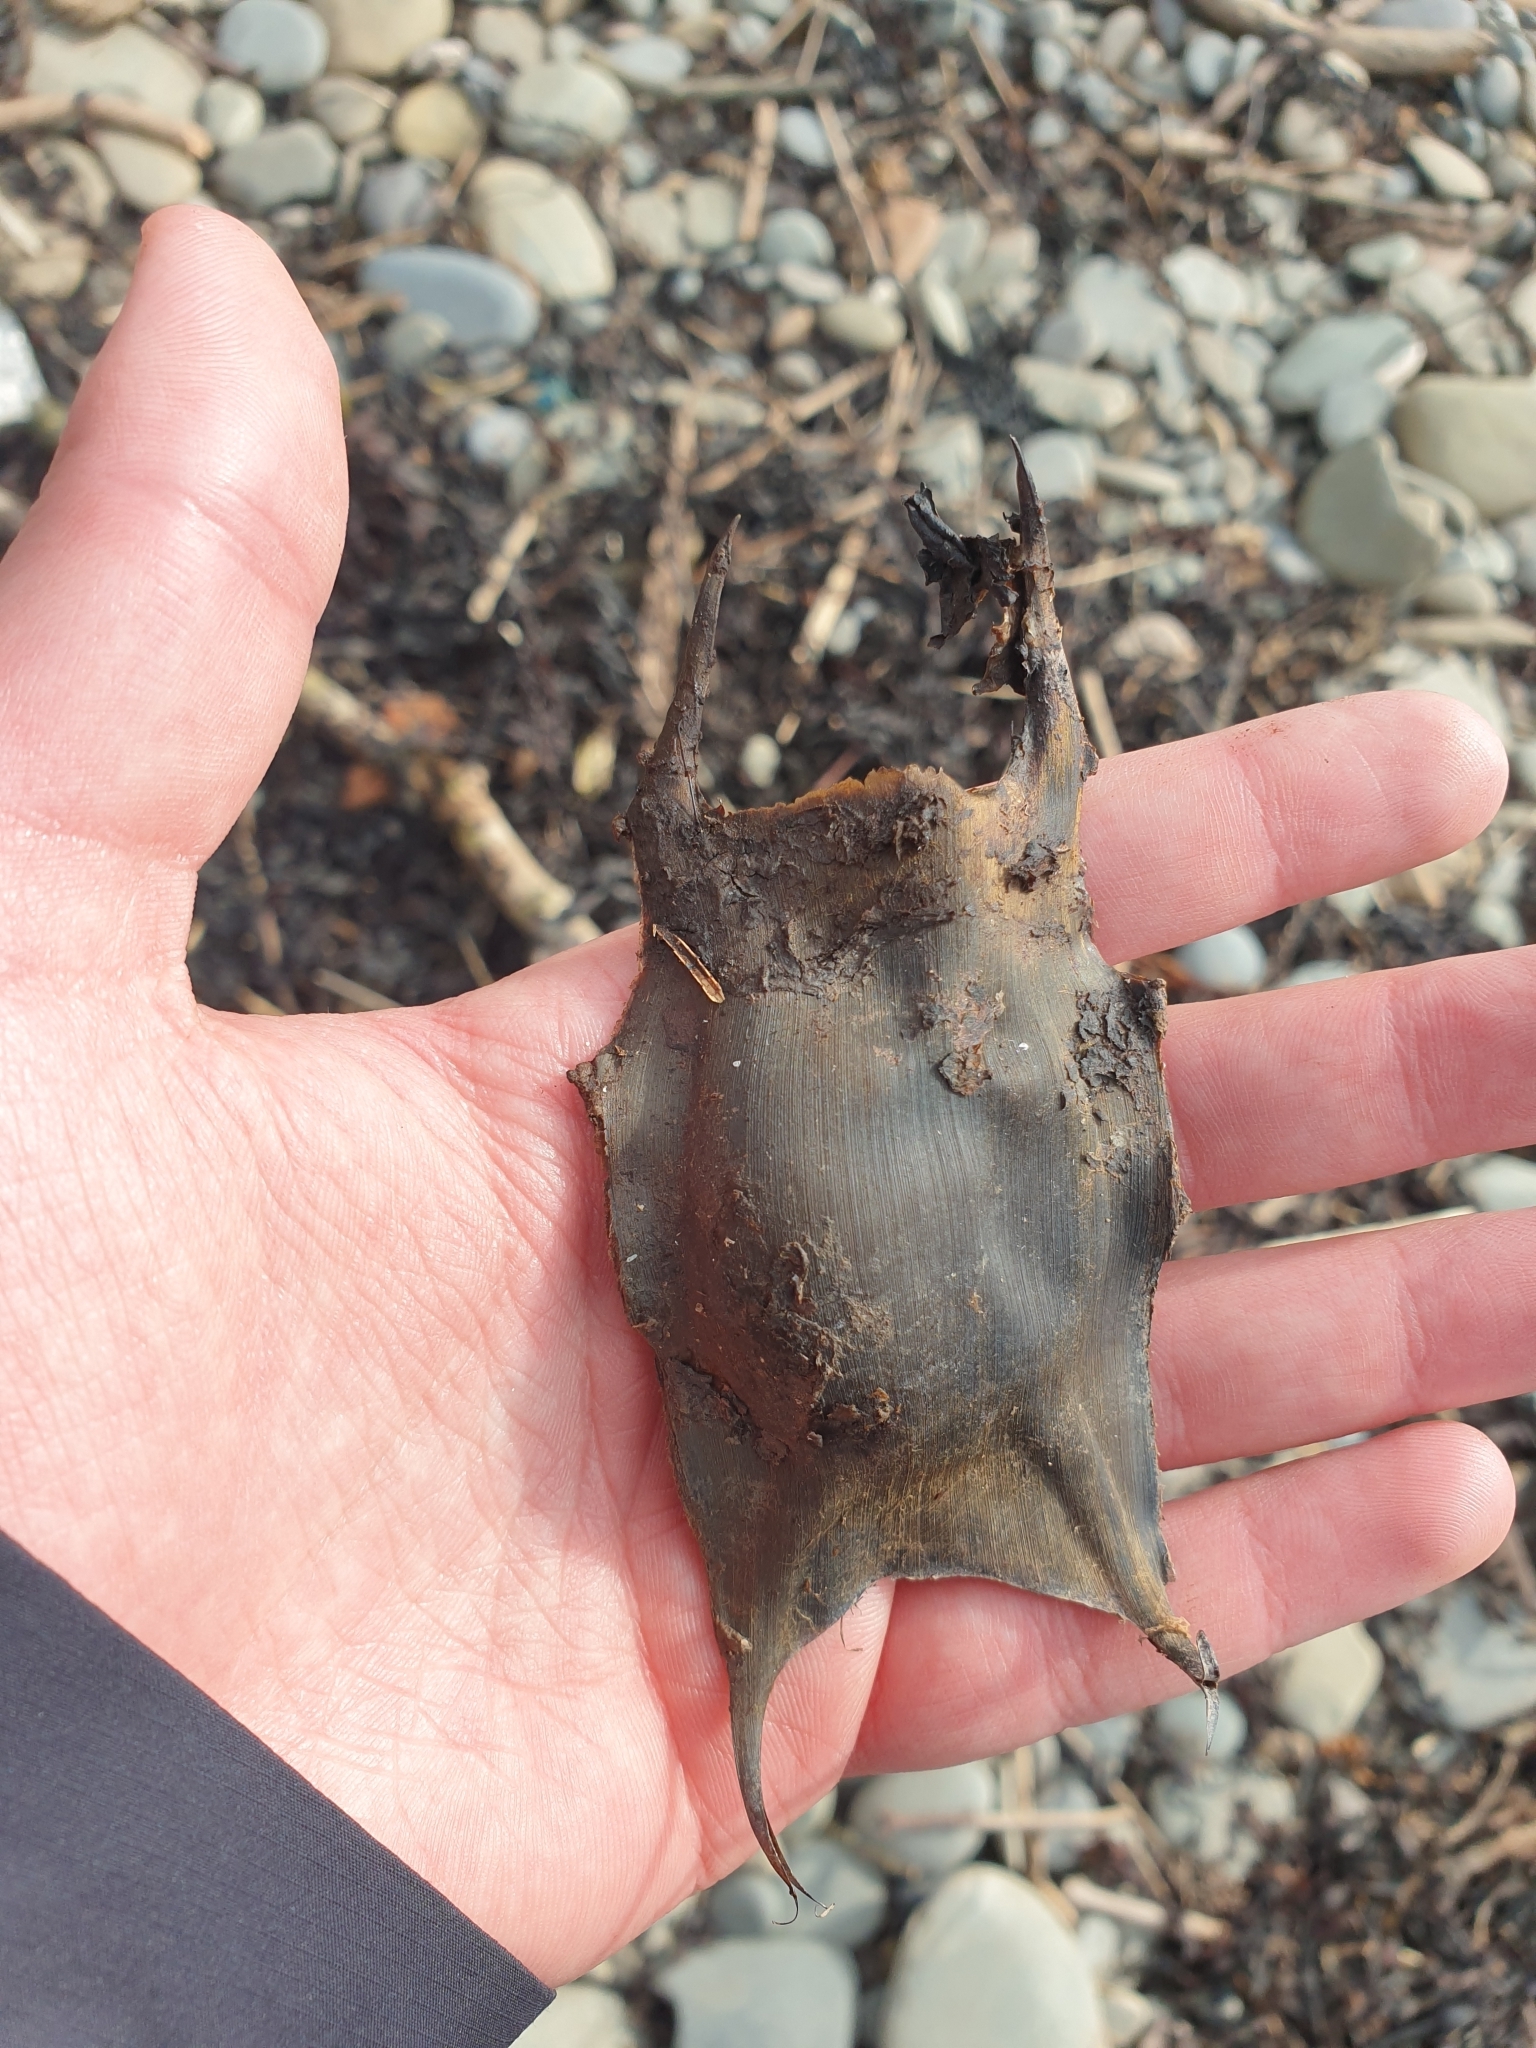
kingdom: Animalia
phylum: Chordata
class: Elasmobranchii
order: Rajiformes
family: Rajidae
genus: Raja
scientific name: Raja clavata
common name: Thornback ray
